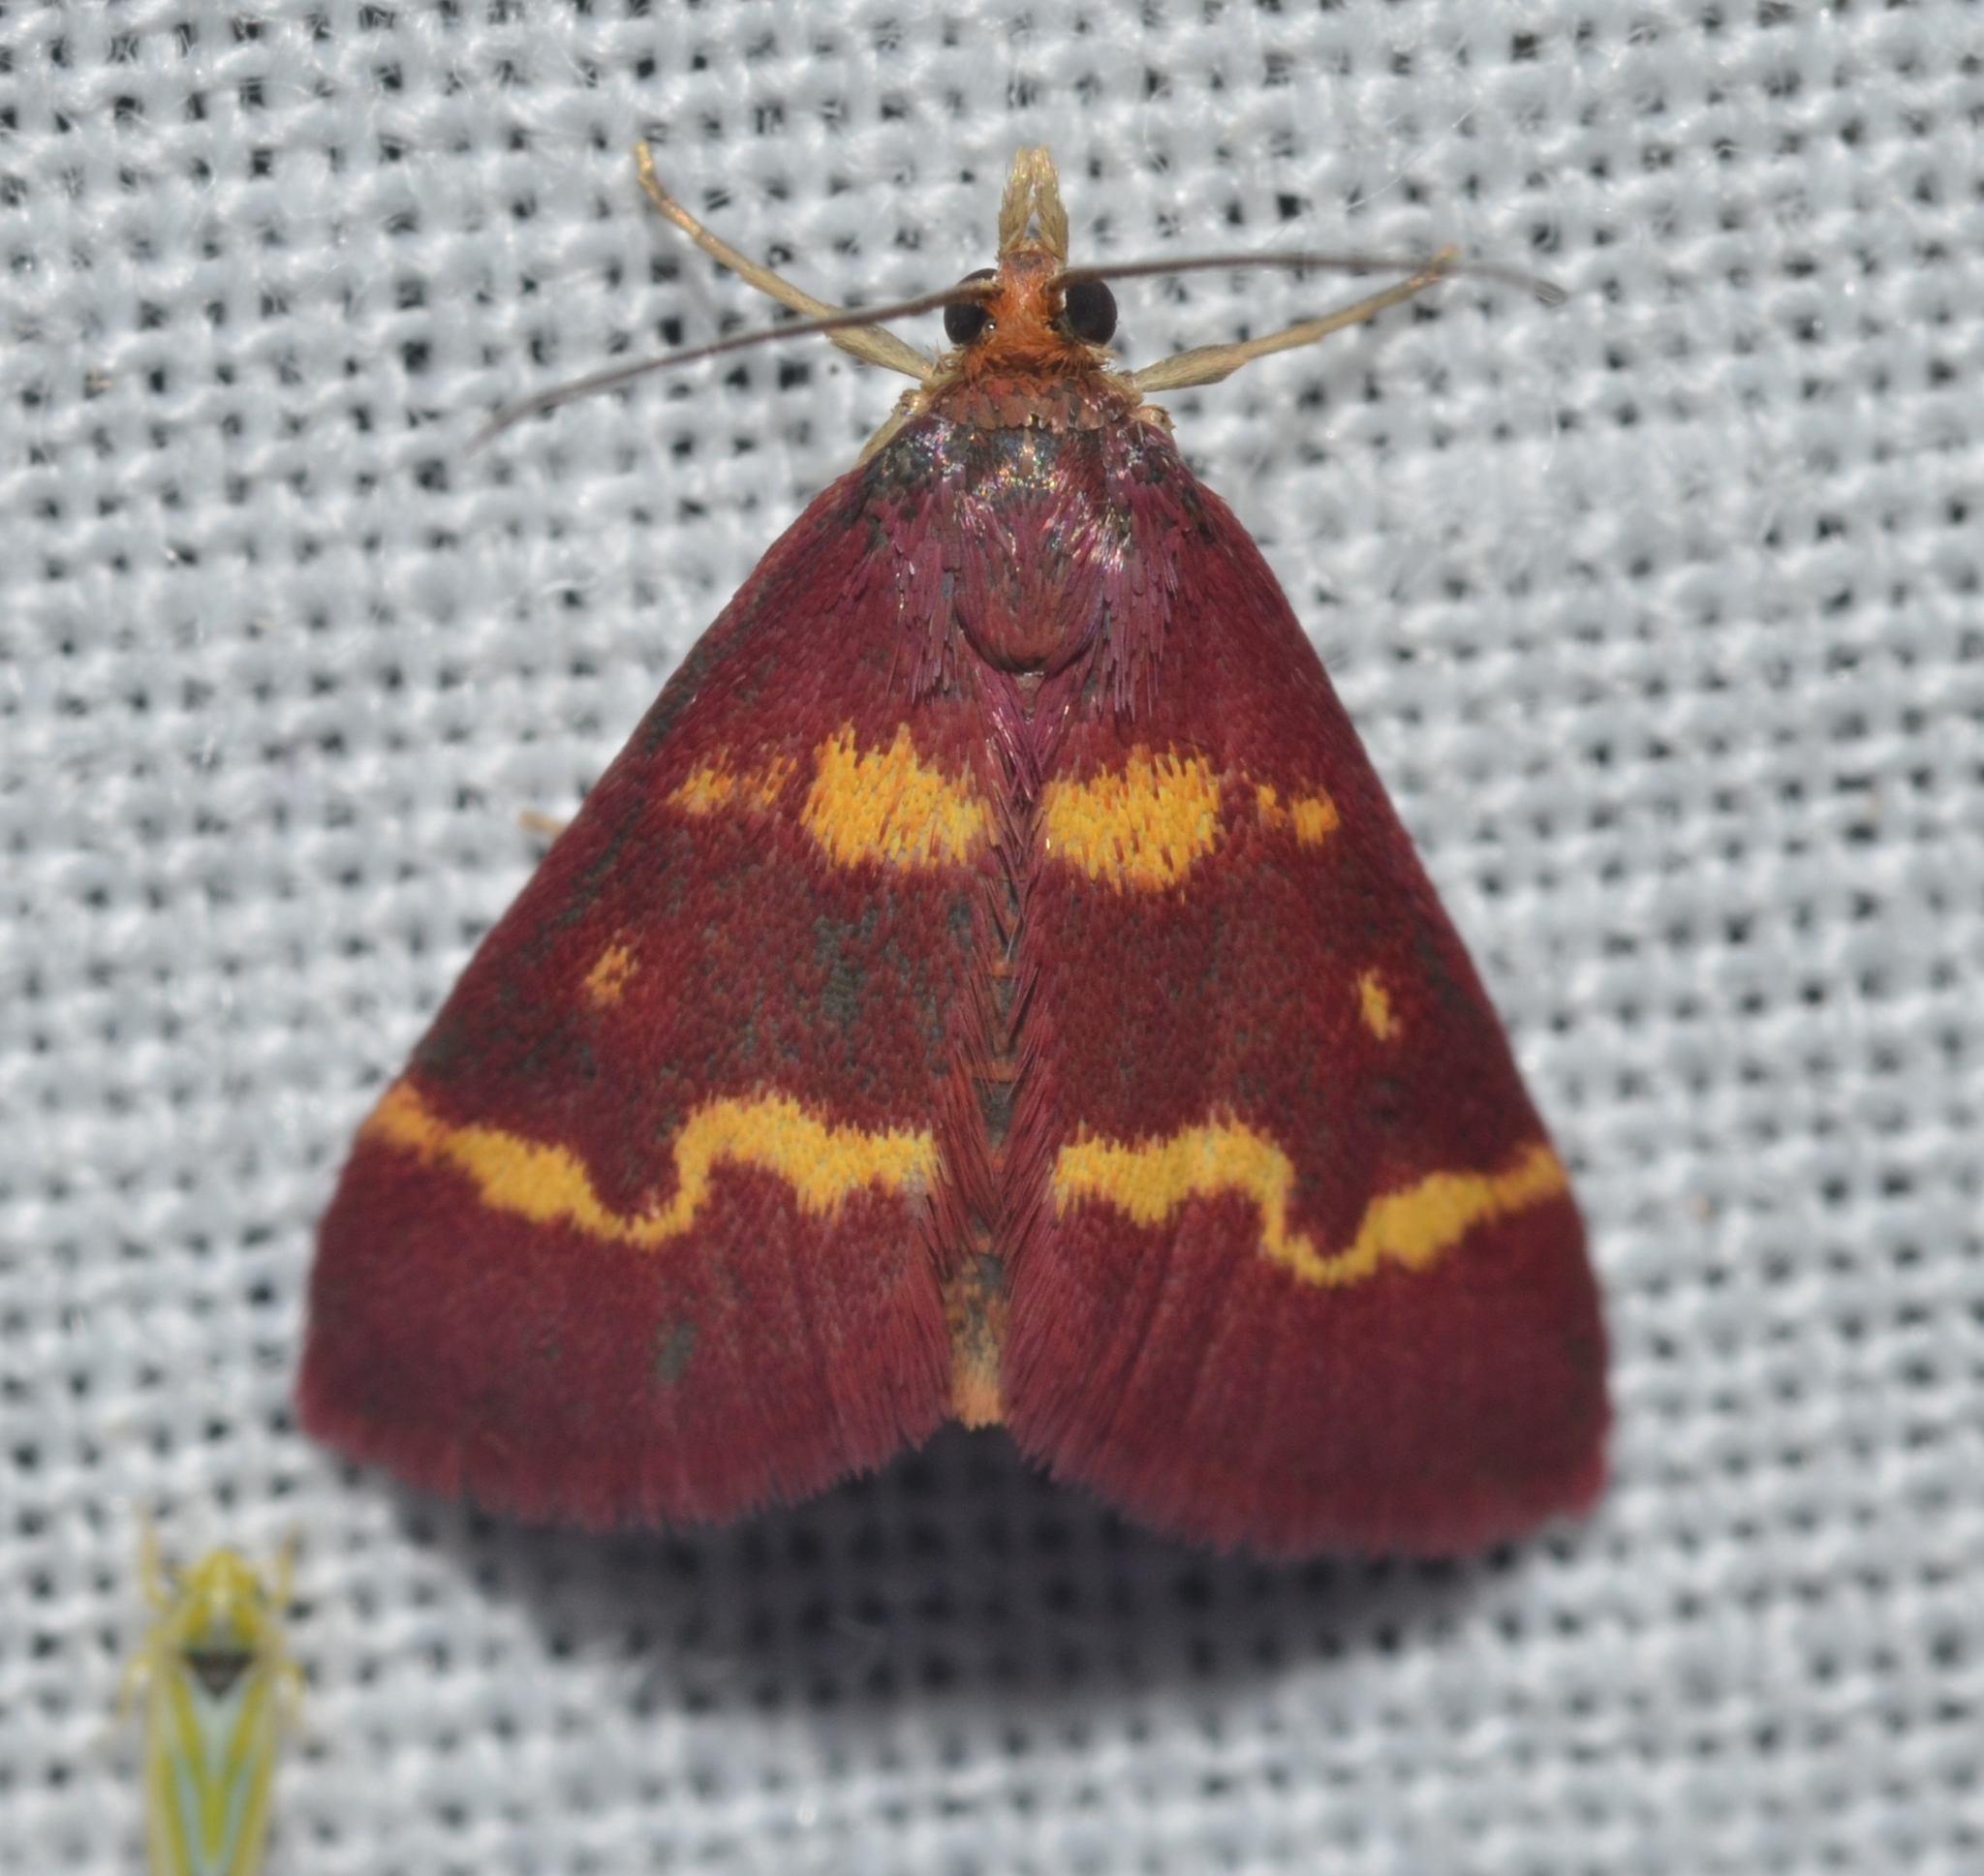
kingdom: Animalia
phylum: Arthropoda
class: Insecta
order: Lepidoptera
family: Crambidae
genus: Pyrausta
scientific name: Pyrausta tyralis
